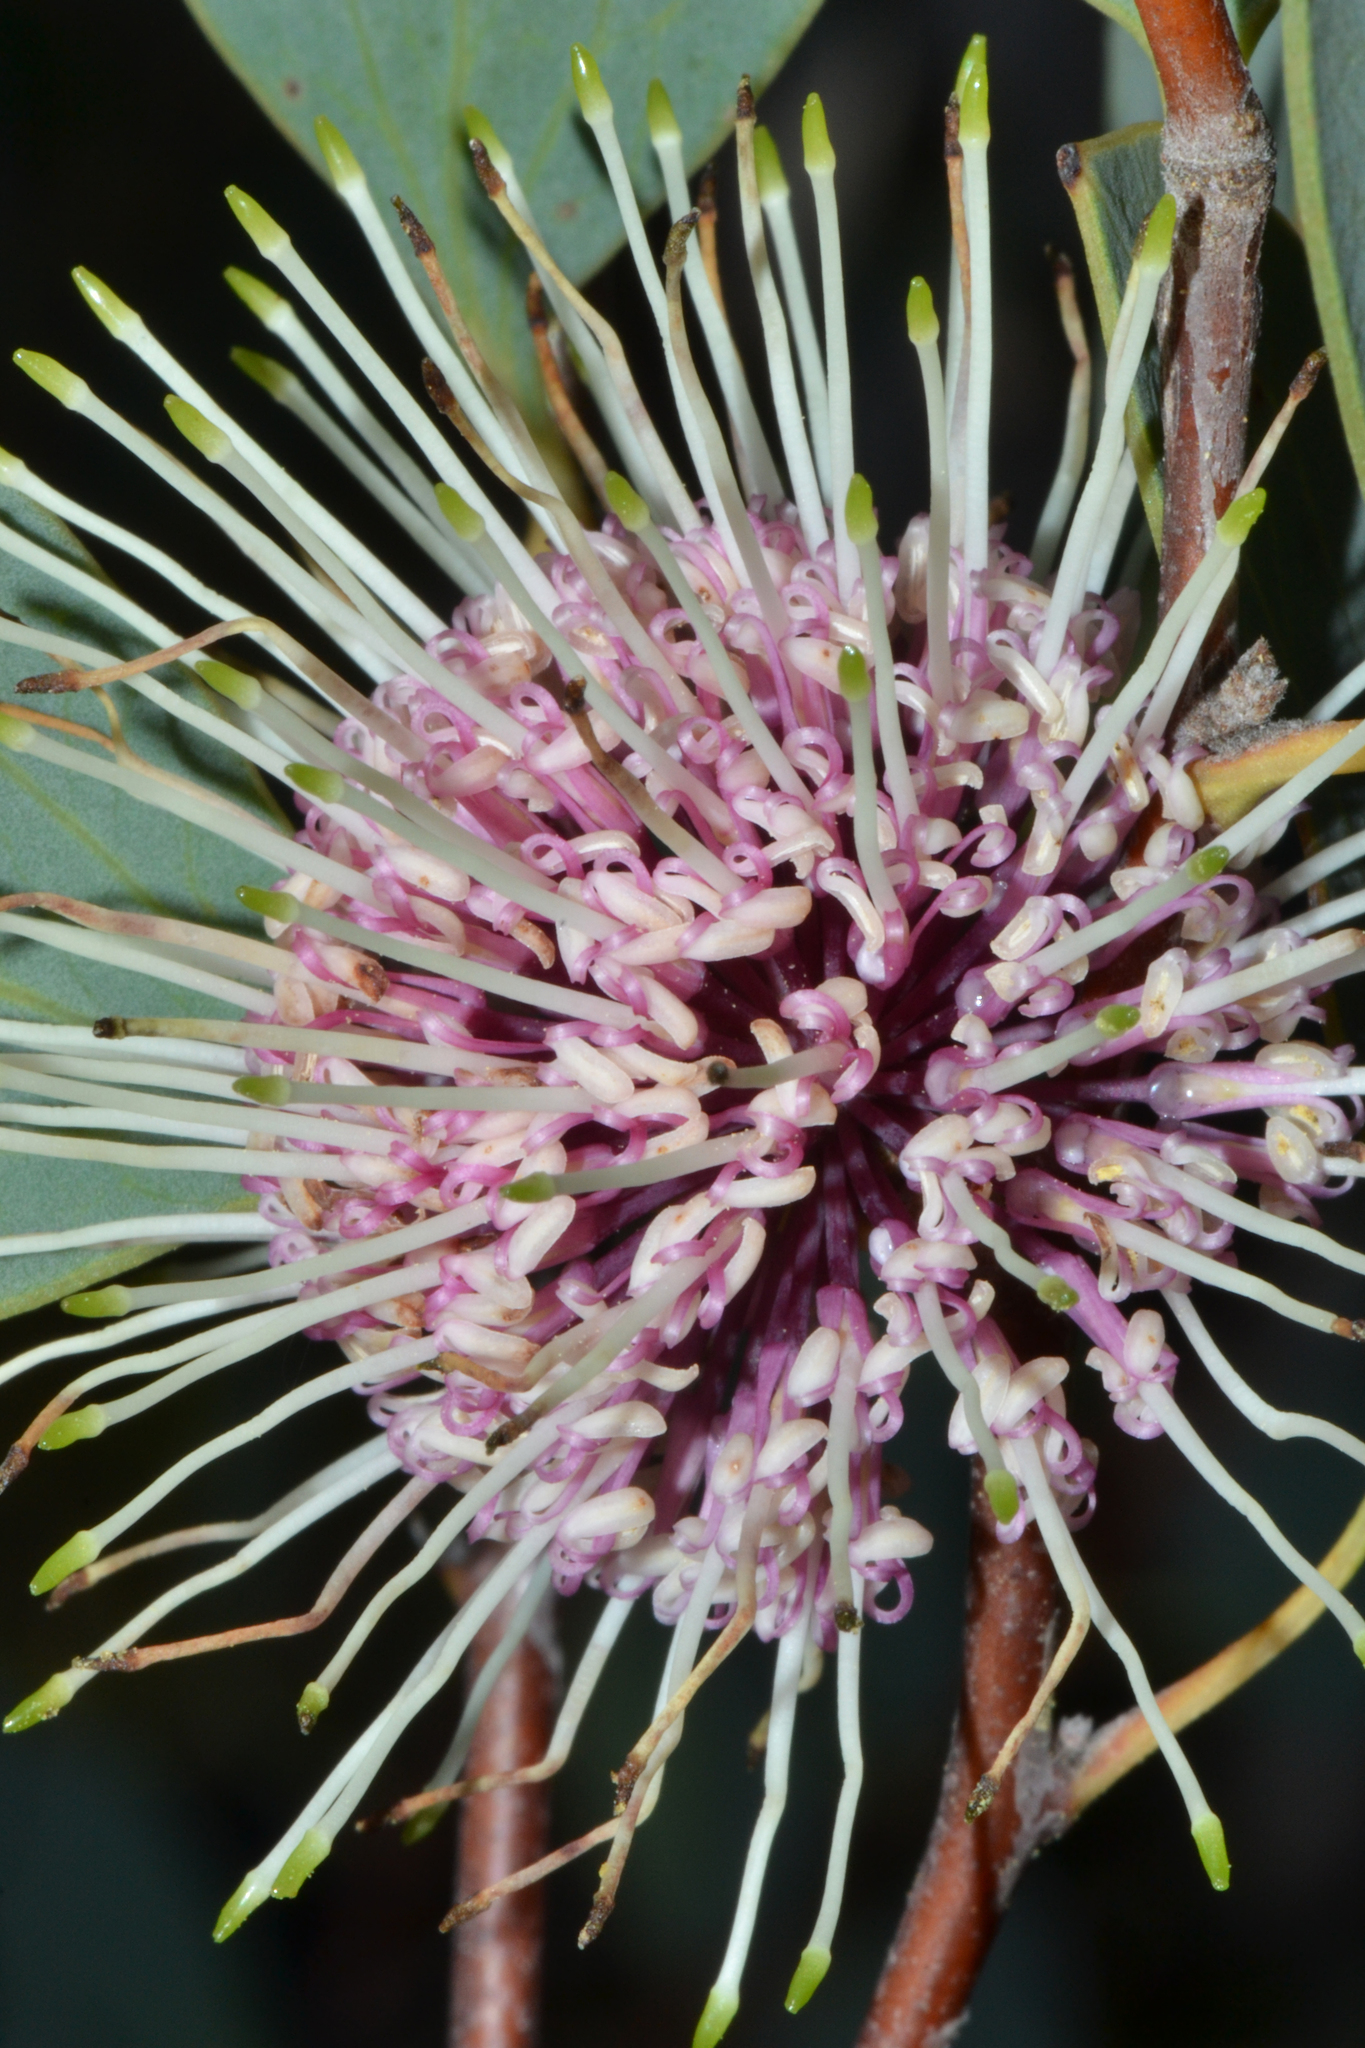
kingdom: Plantae
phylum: Tracheophyta
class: Magnoliopsida
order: Proteales
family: Proteaceae
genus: Hakea
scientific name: Hakea petiolaris
